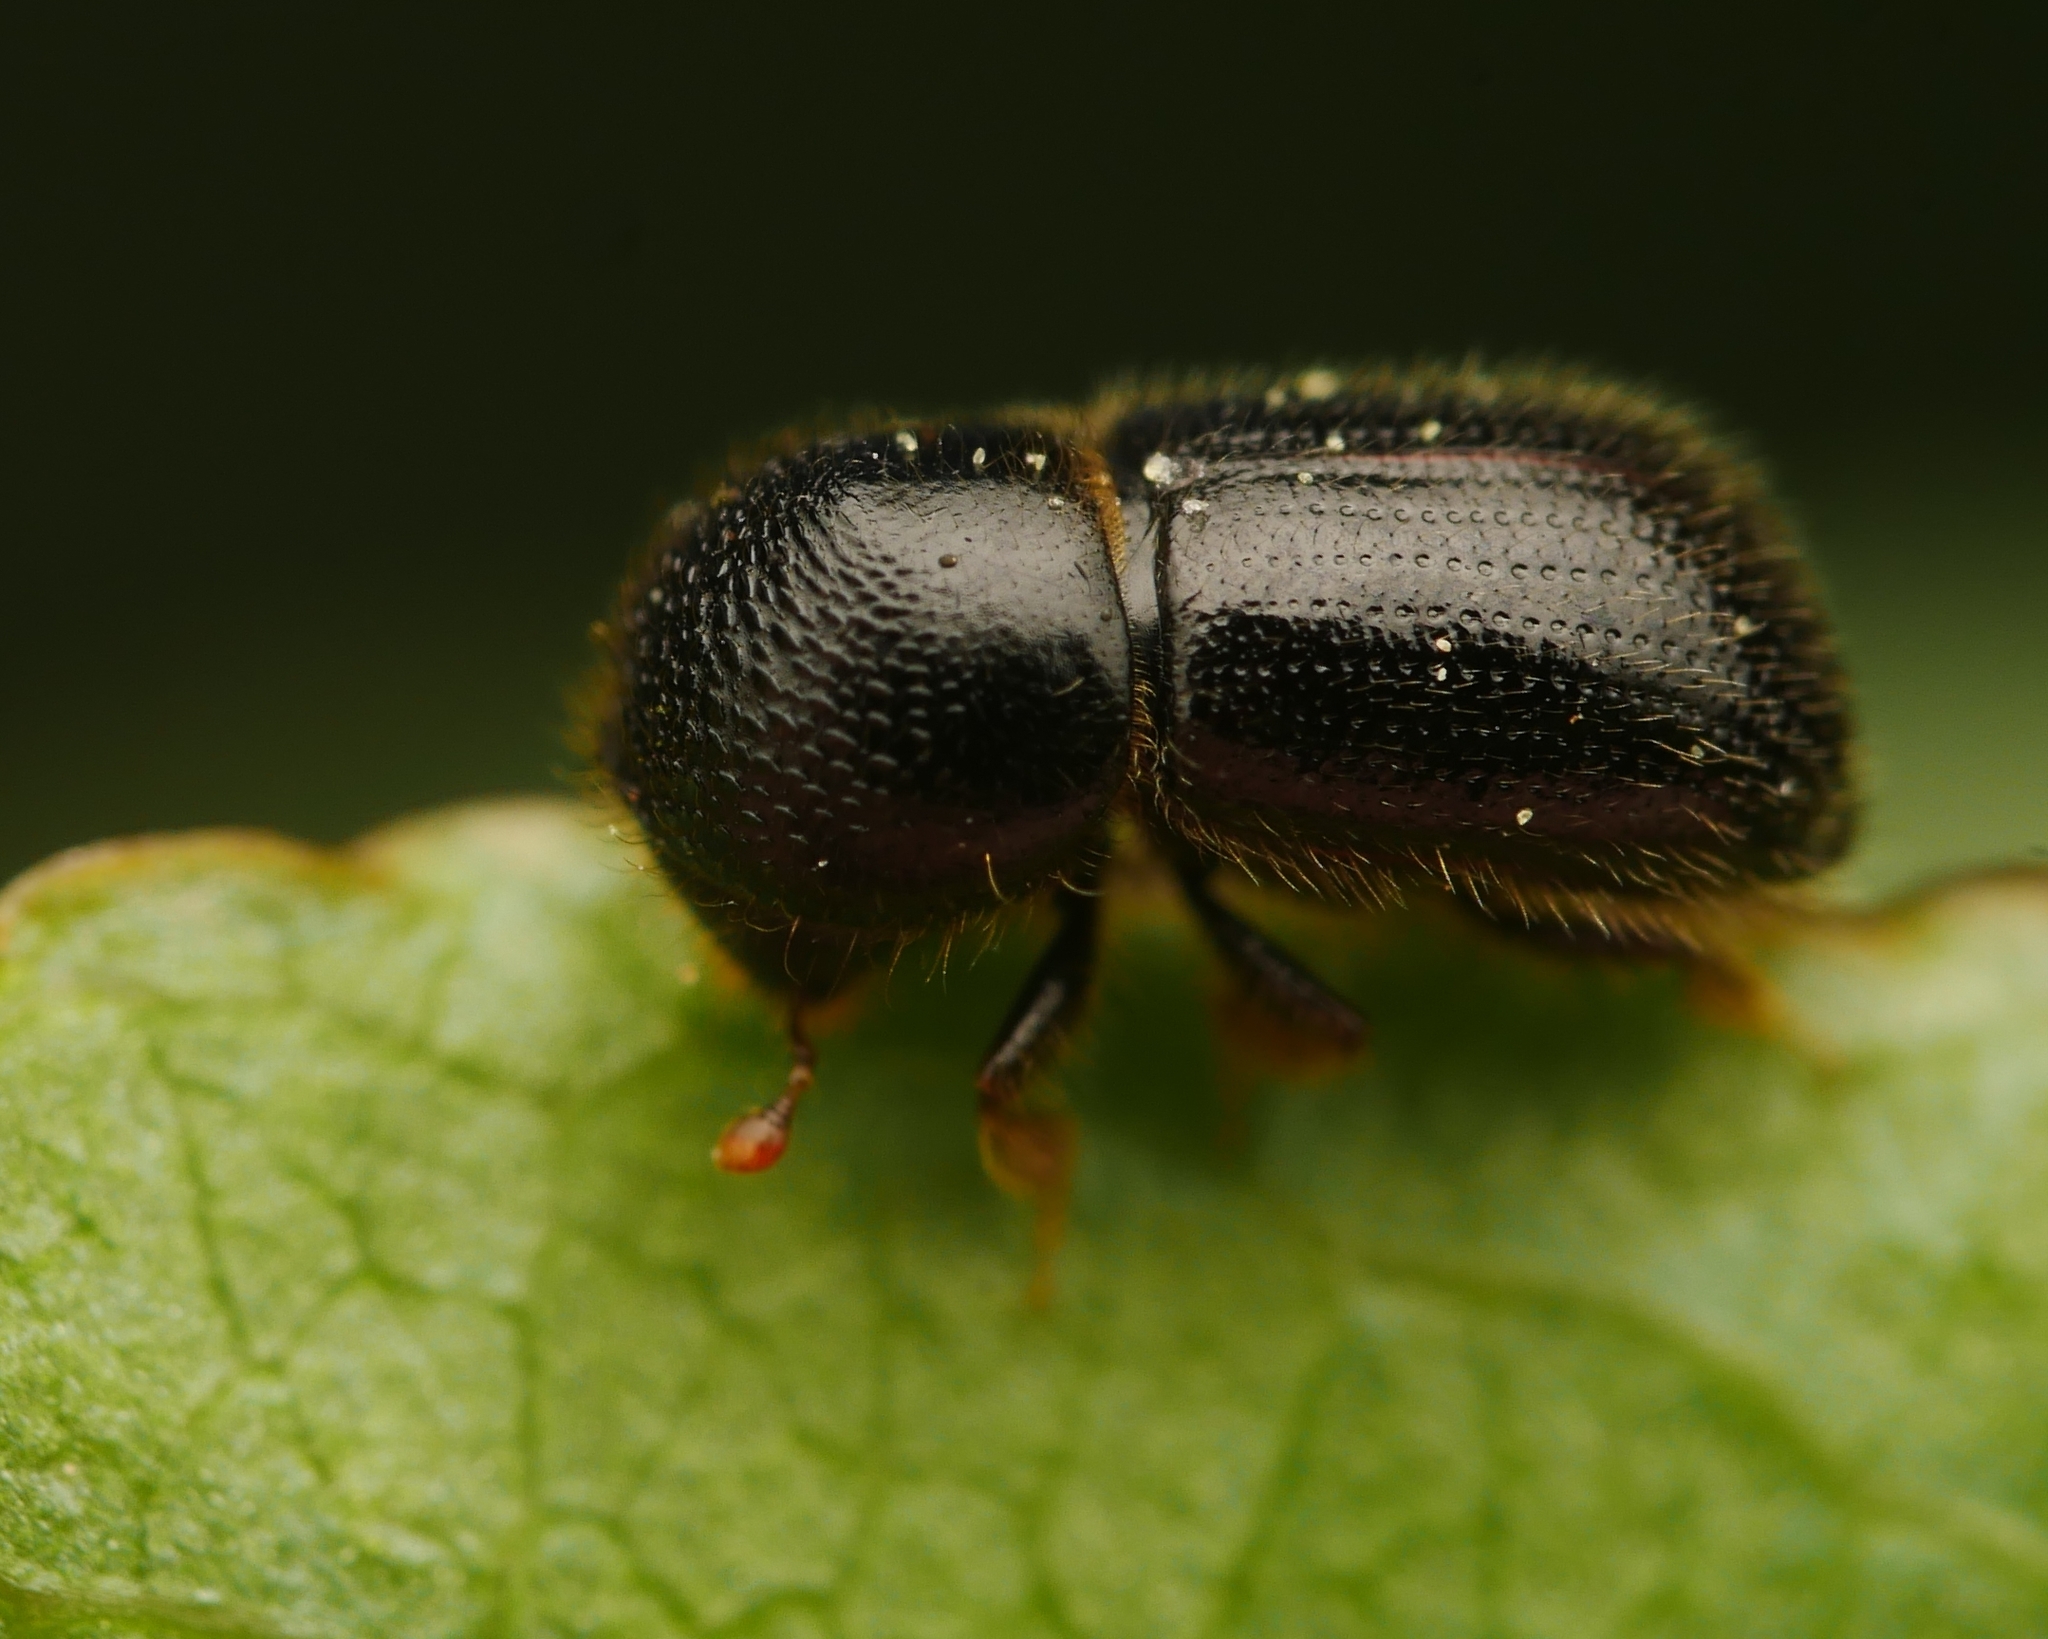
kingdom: Animalia
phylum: Arthropoda
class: Insecta
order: Coleoptera
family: Curculionidae
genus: Anisandrus
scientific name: Anisandrus dispar
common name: European shothole borer
